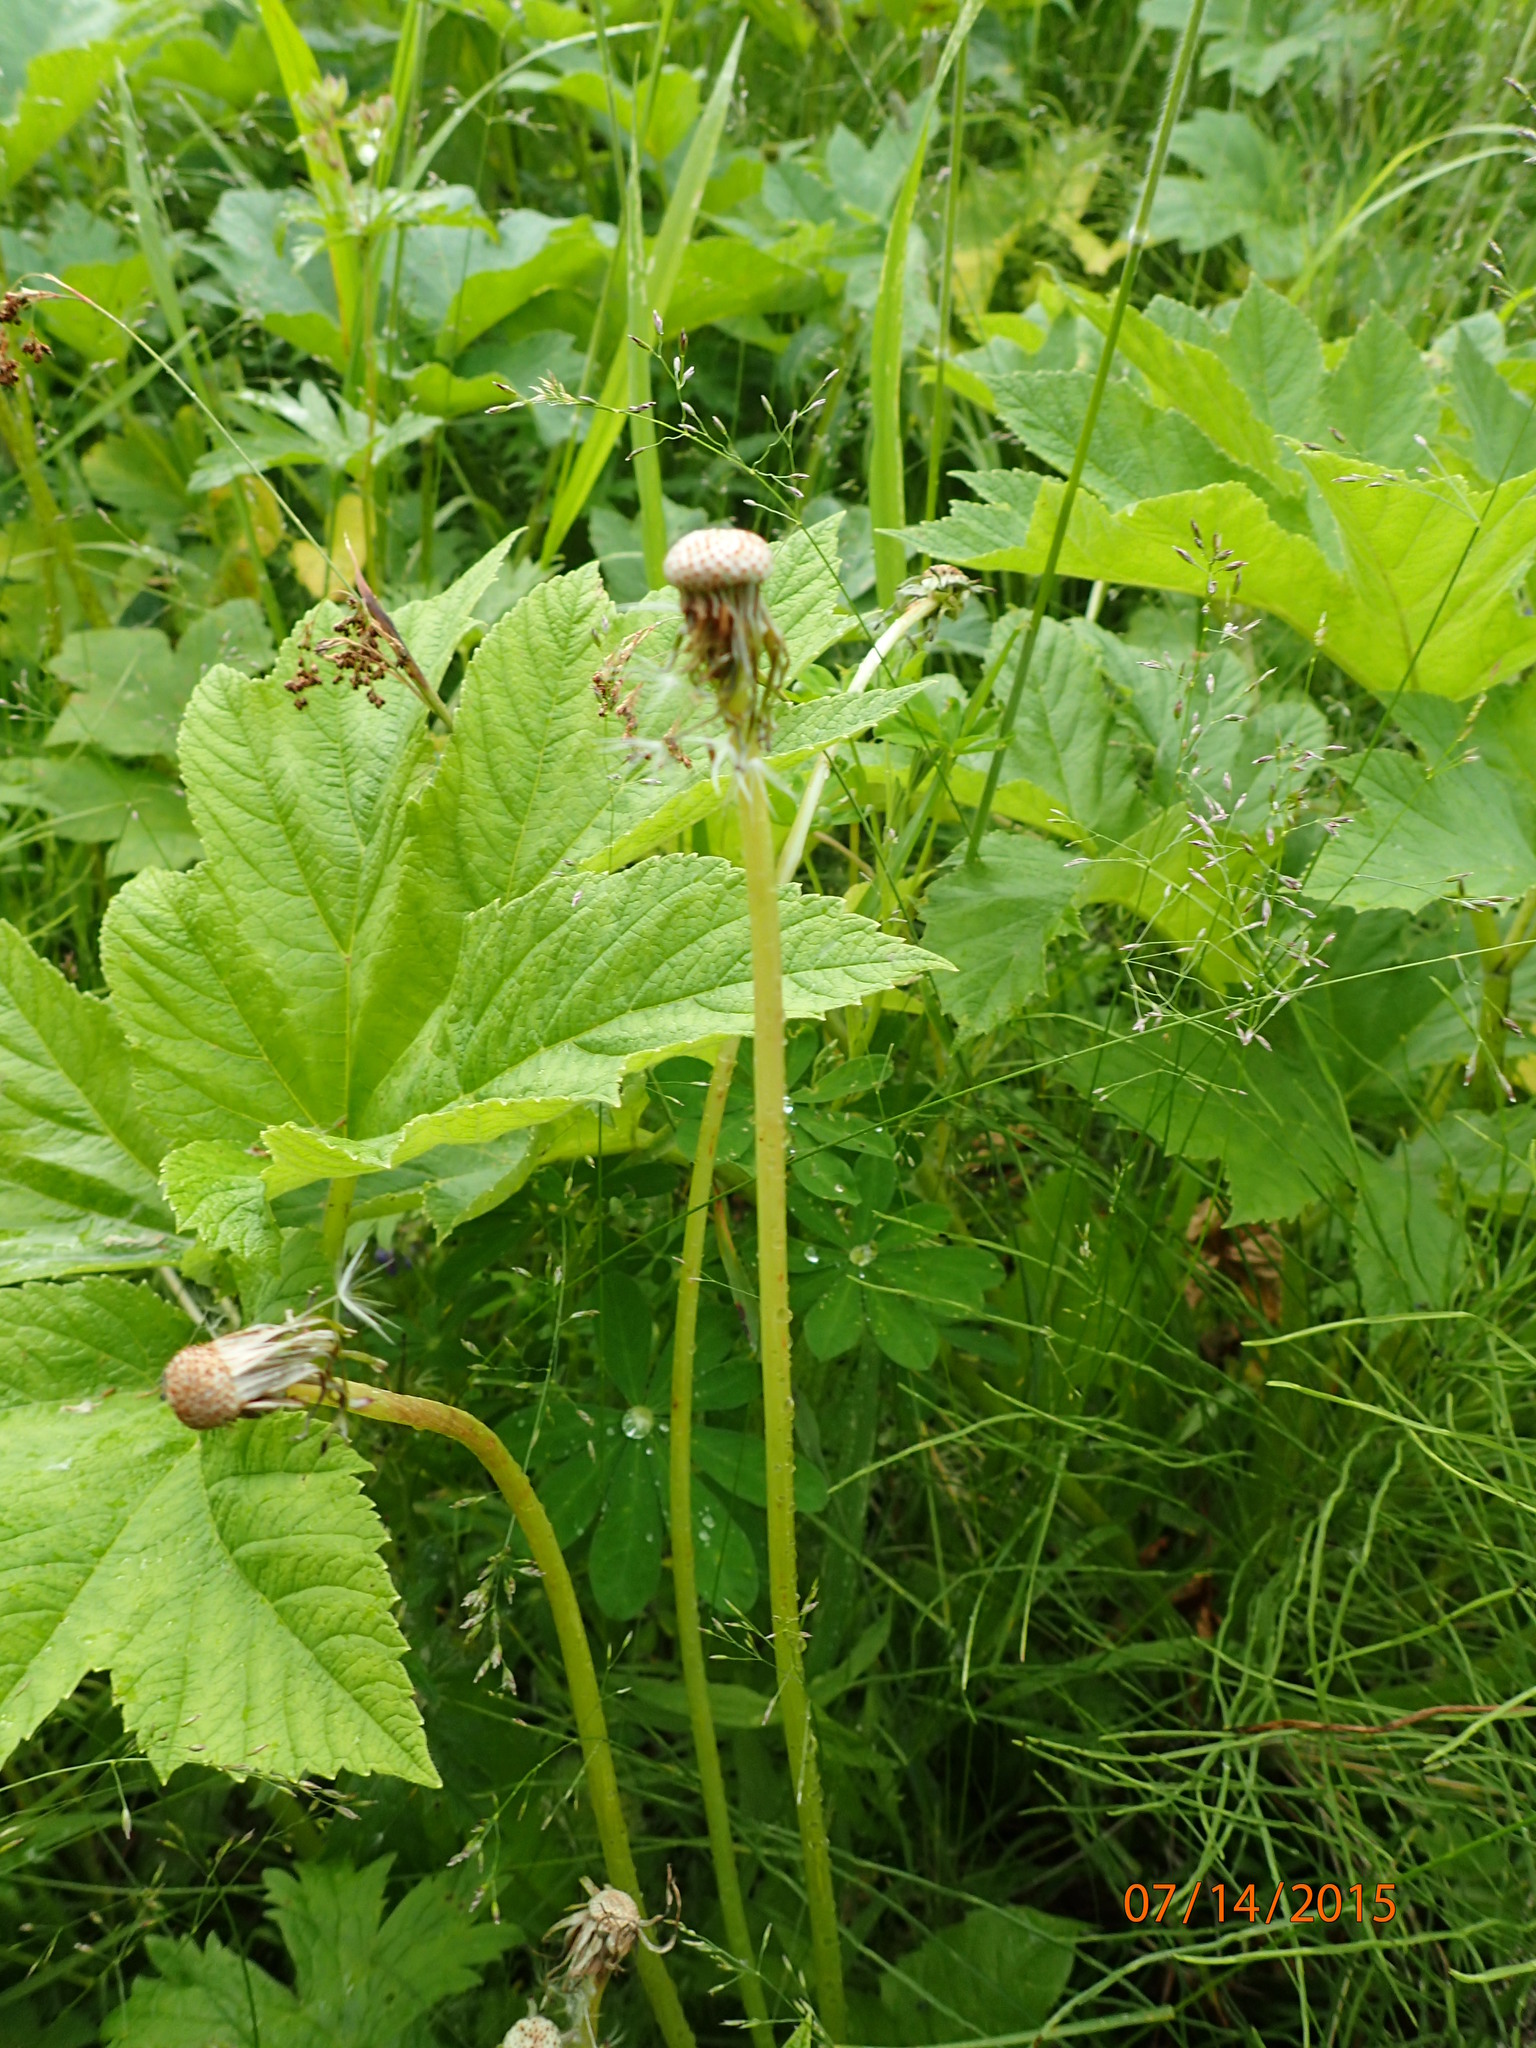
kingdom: Plantae
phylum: Tracheophyta
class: Magnoliopsida
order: Asterales
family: Asteraceae
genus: Taraxacum
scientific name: Taraxacum officinale
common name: Common dandelion
